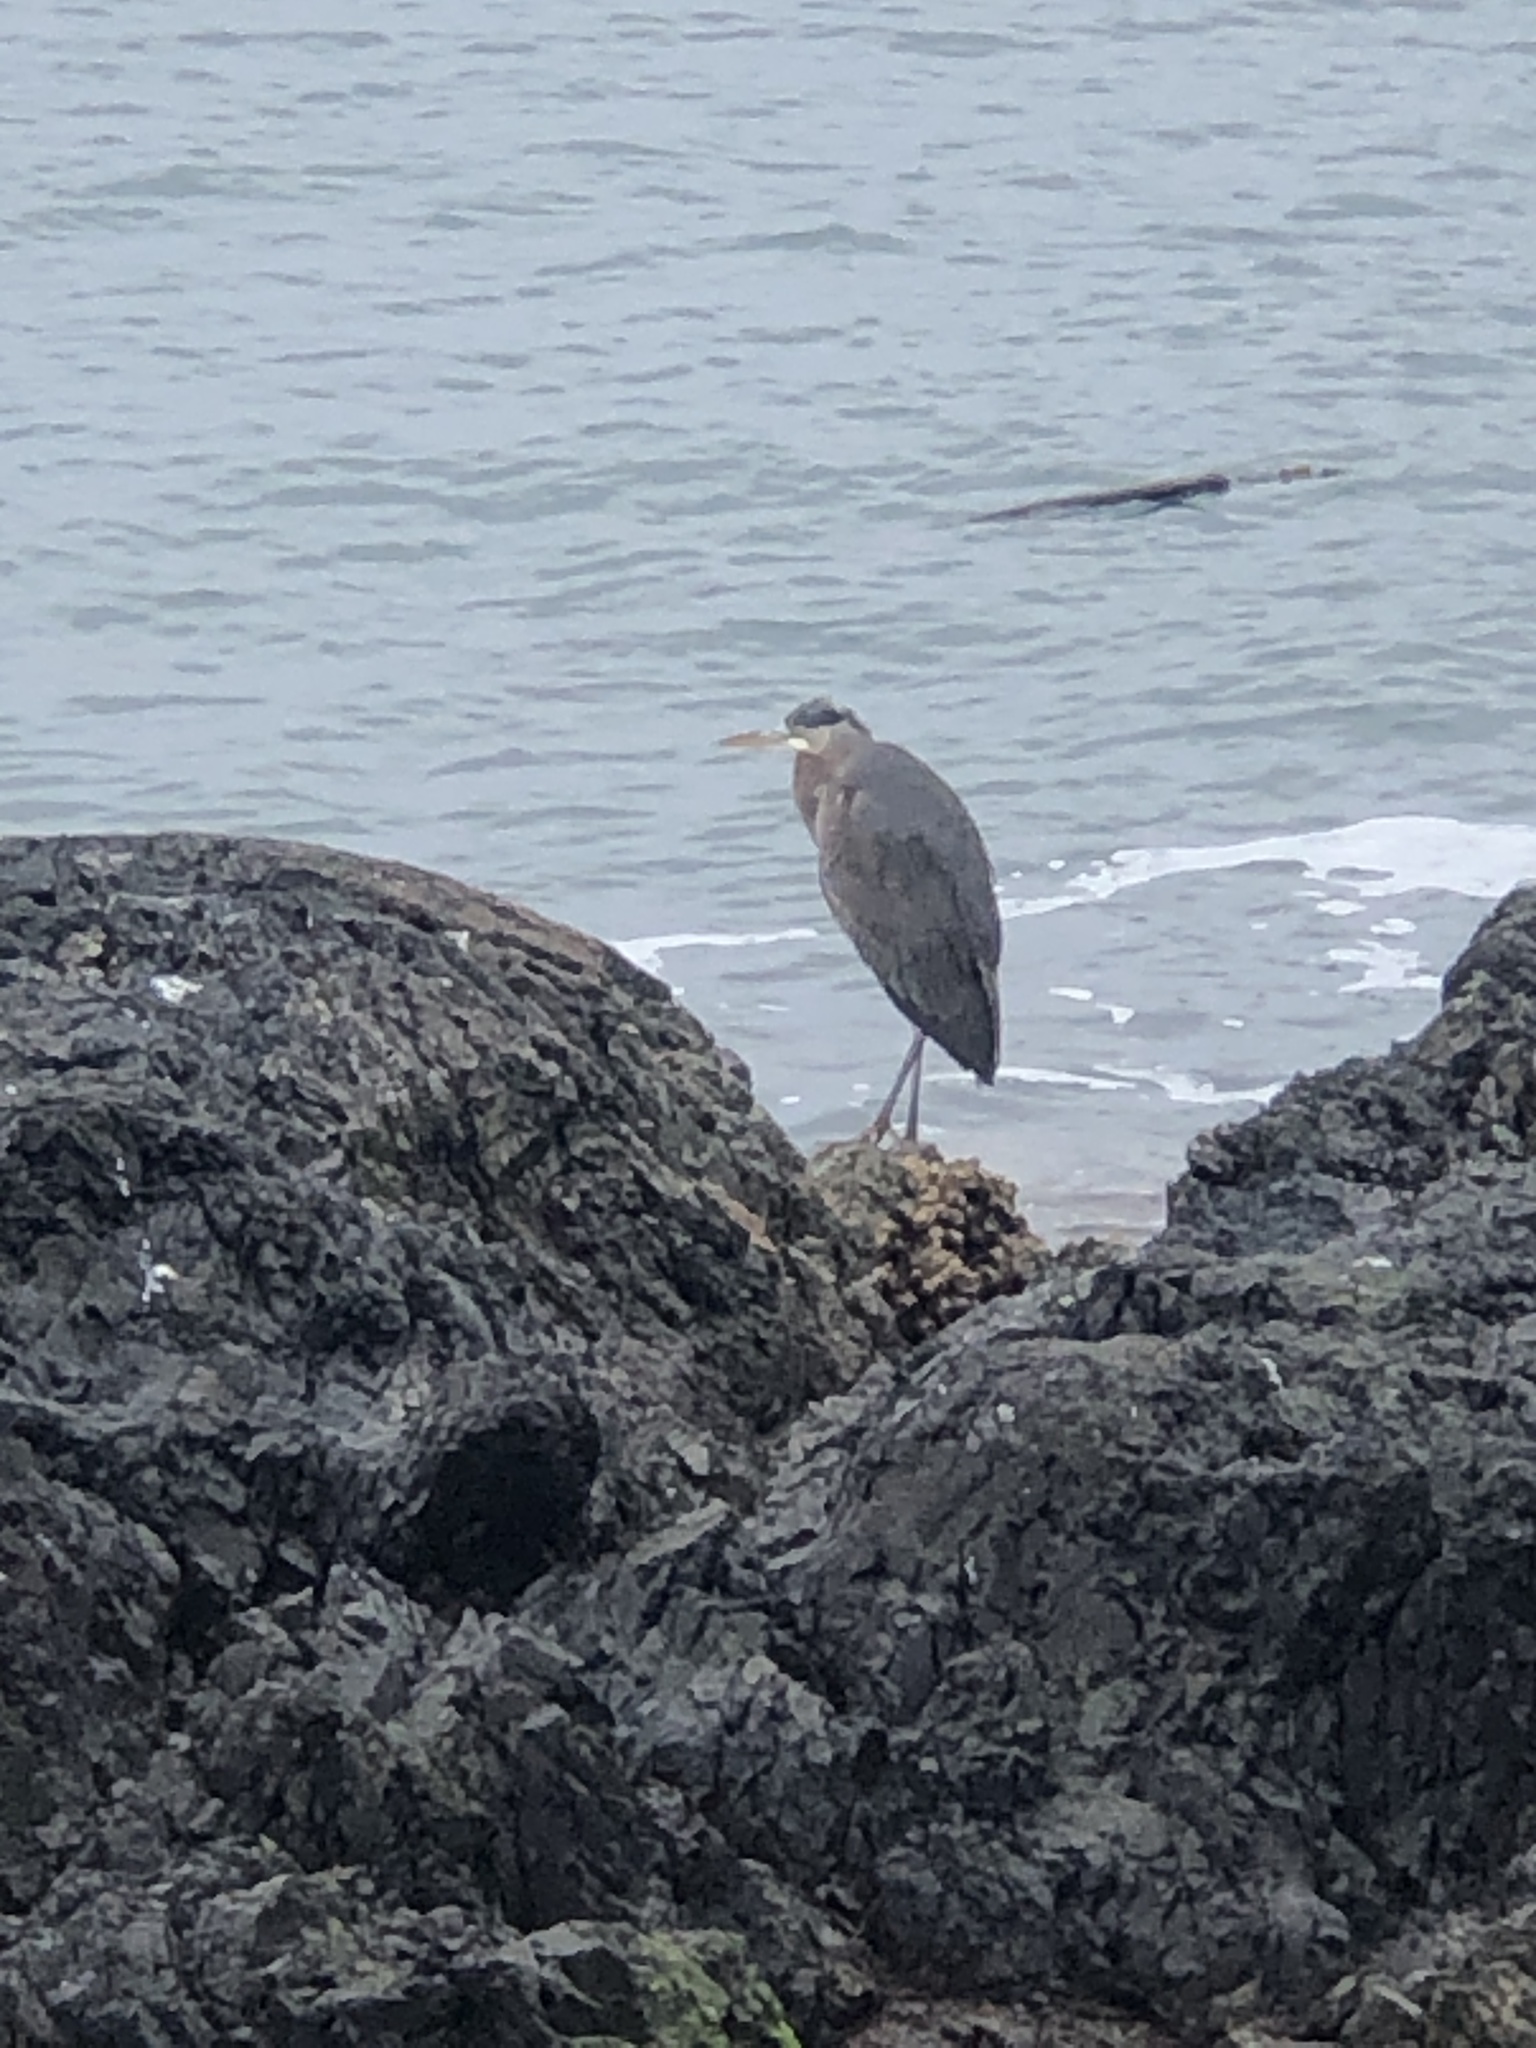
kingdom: Animalia
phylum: Chordata
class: Aves
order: Pelecaniformes
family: Ardeidae
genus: Ardea
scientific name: Ardea herodias
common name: Great blue heron
